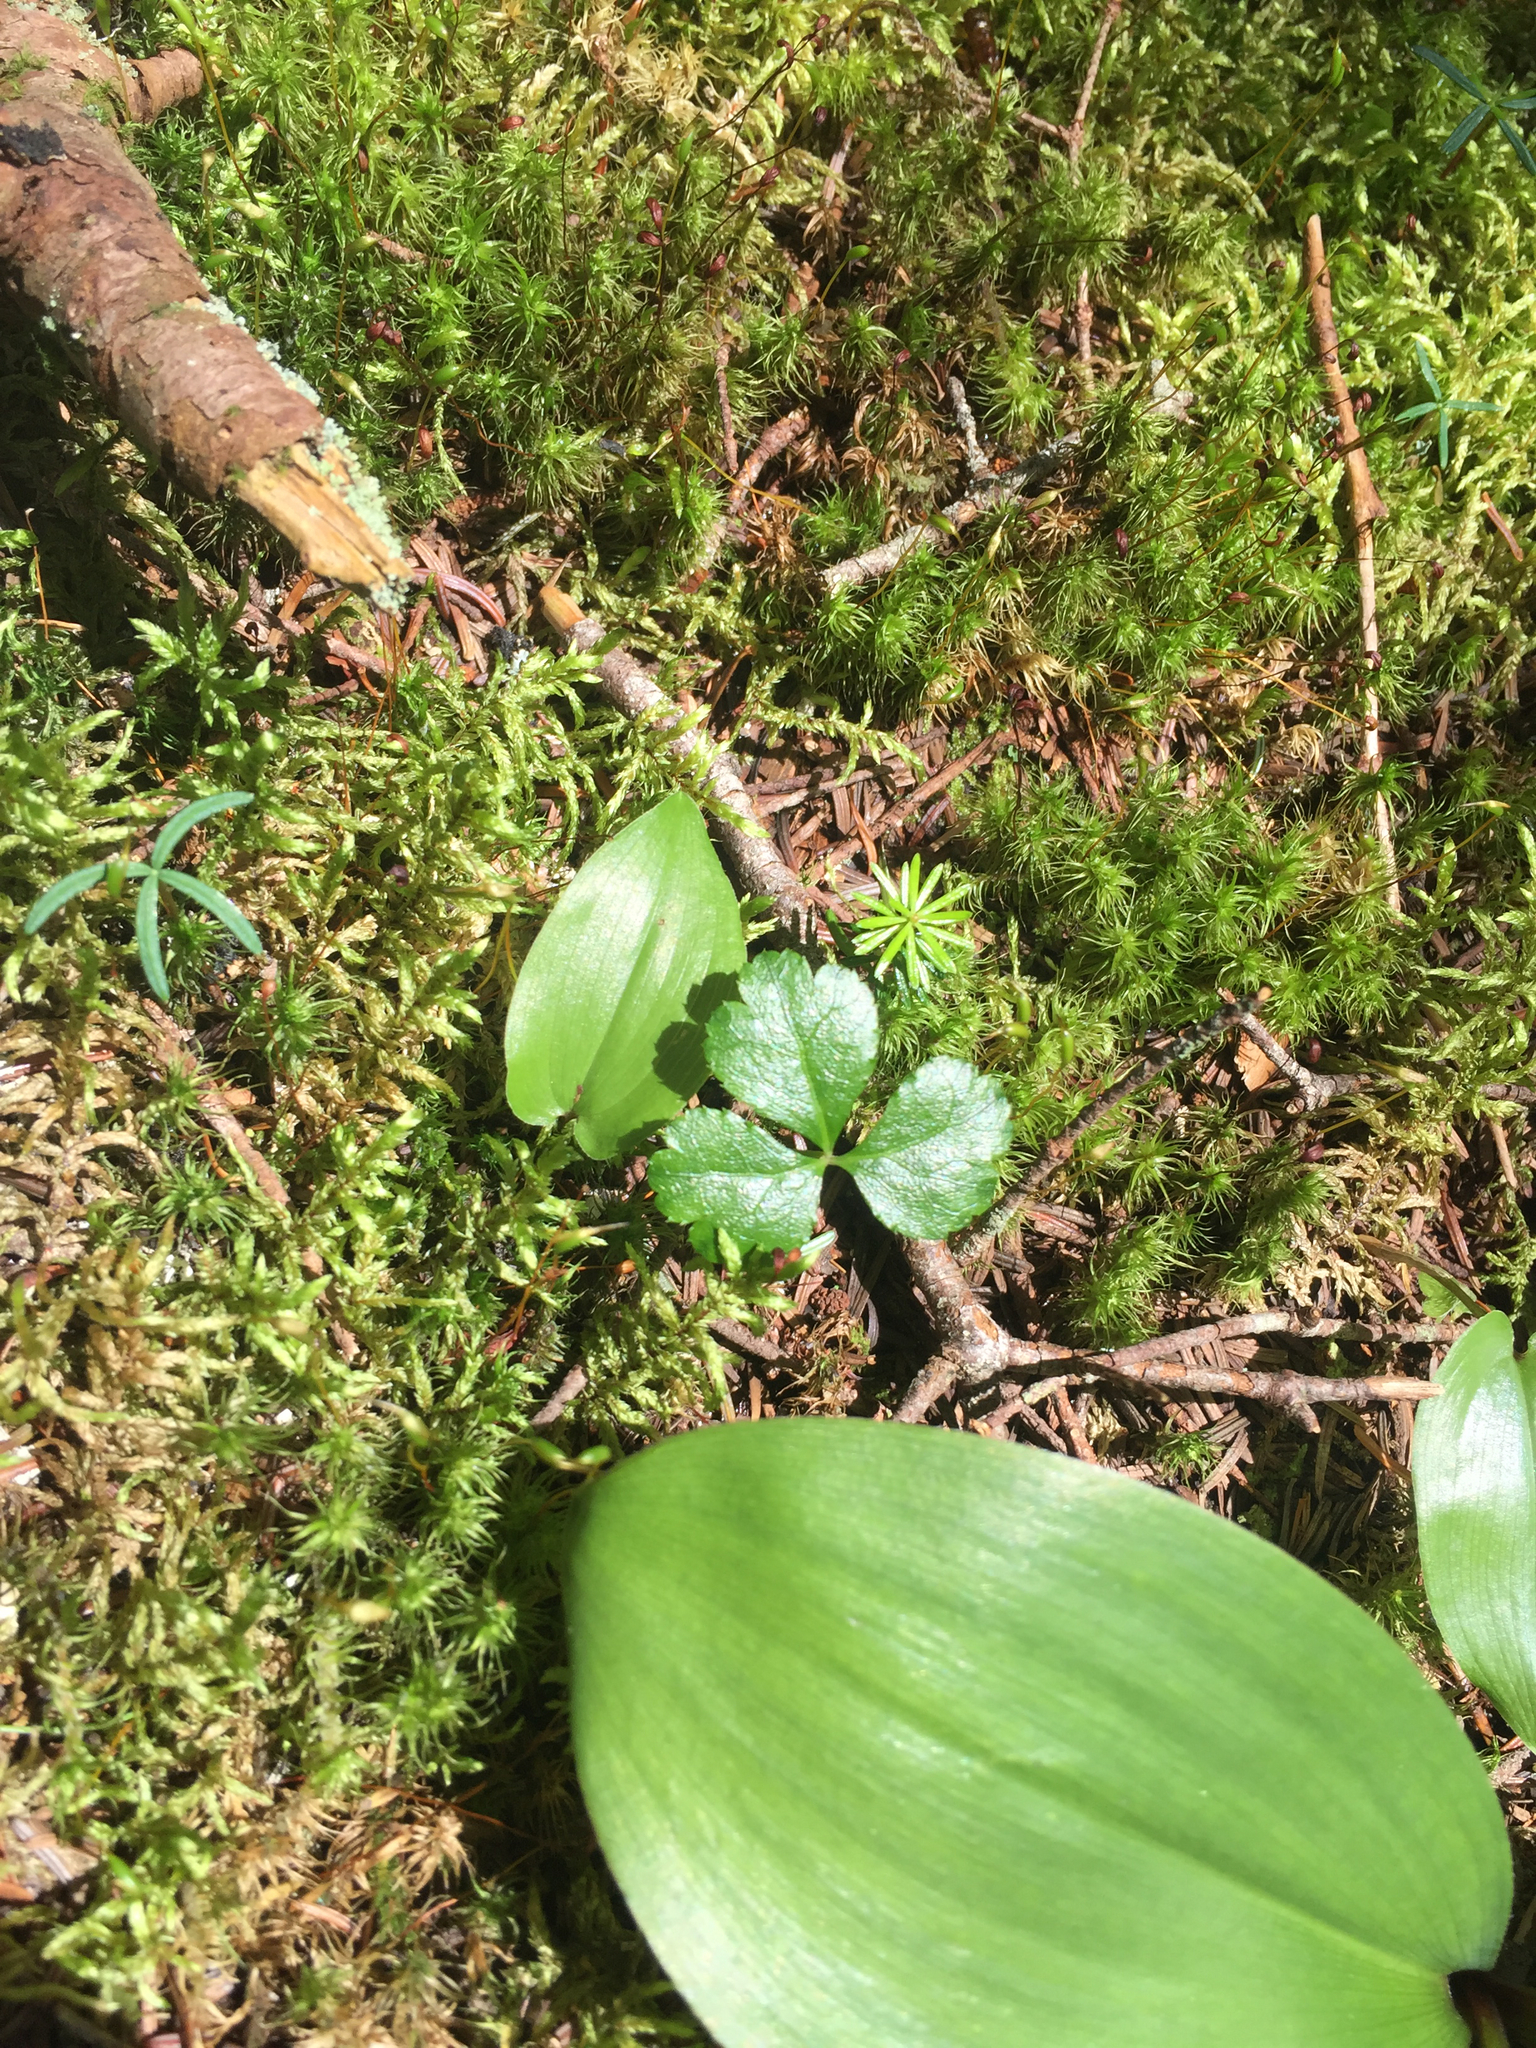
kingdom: Plantae
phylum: Tracheophyta
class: Magnoliopsida
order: Ranunculales
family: Ranunculaceae
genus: Coptis
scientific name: Coptis trifolia
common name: Canker-root
